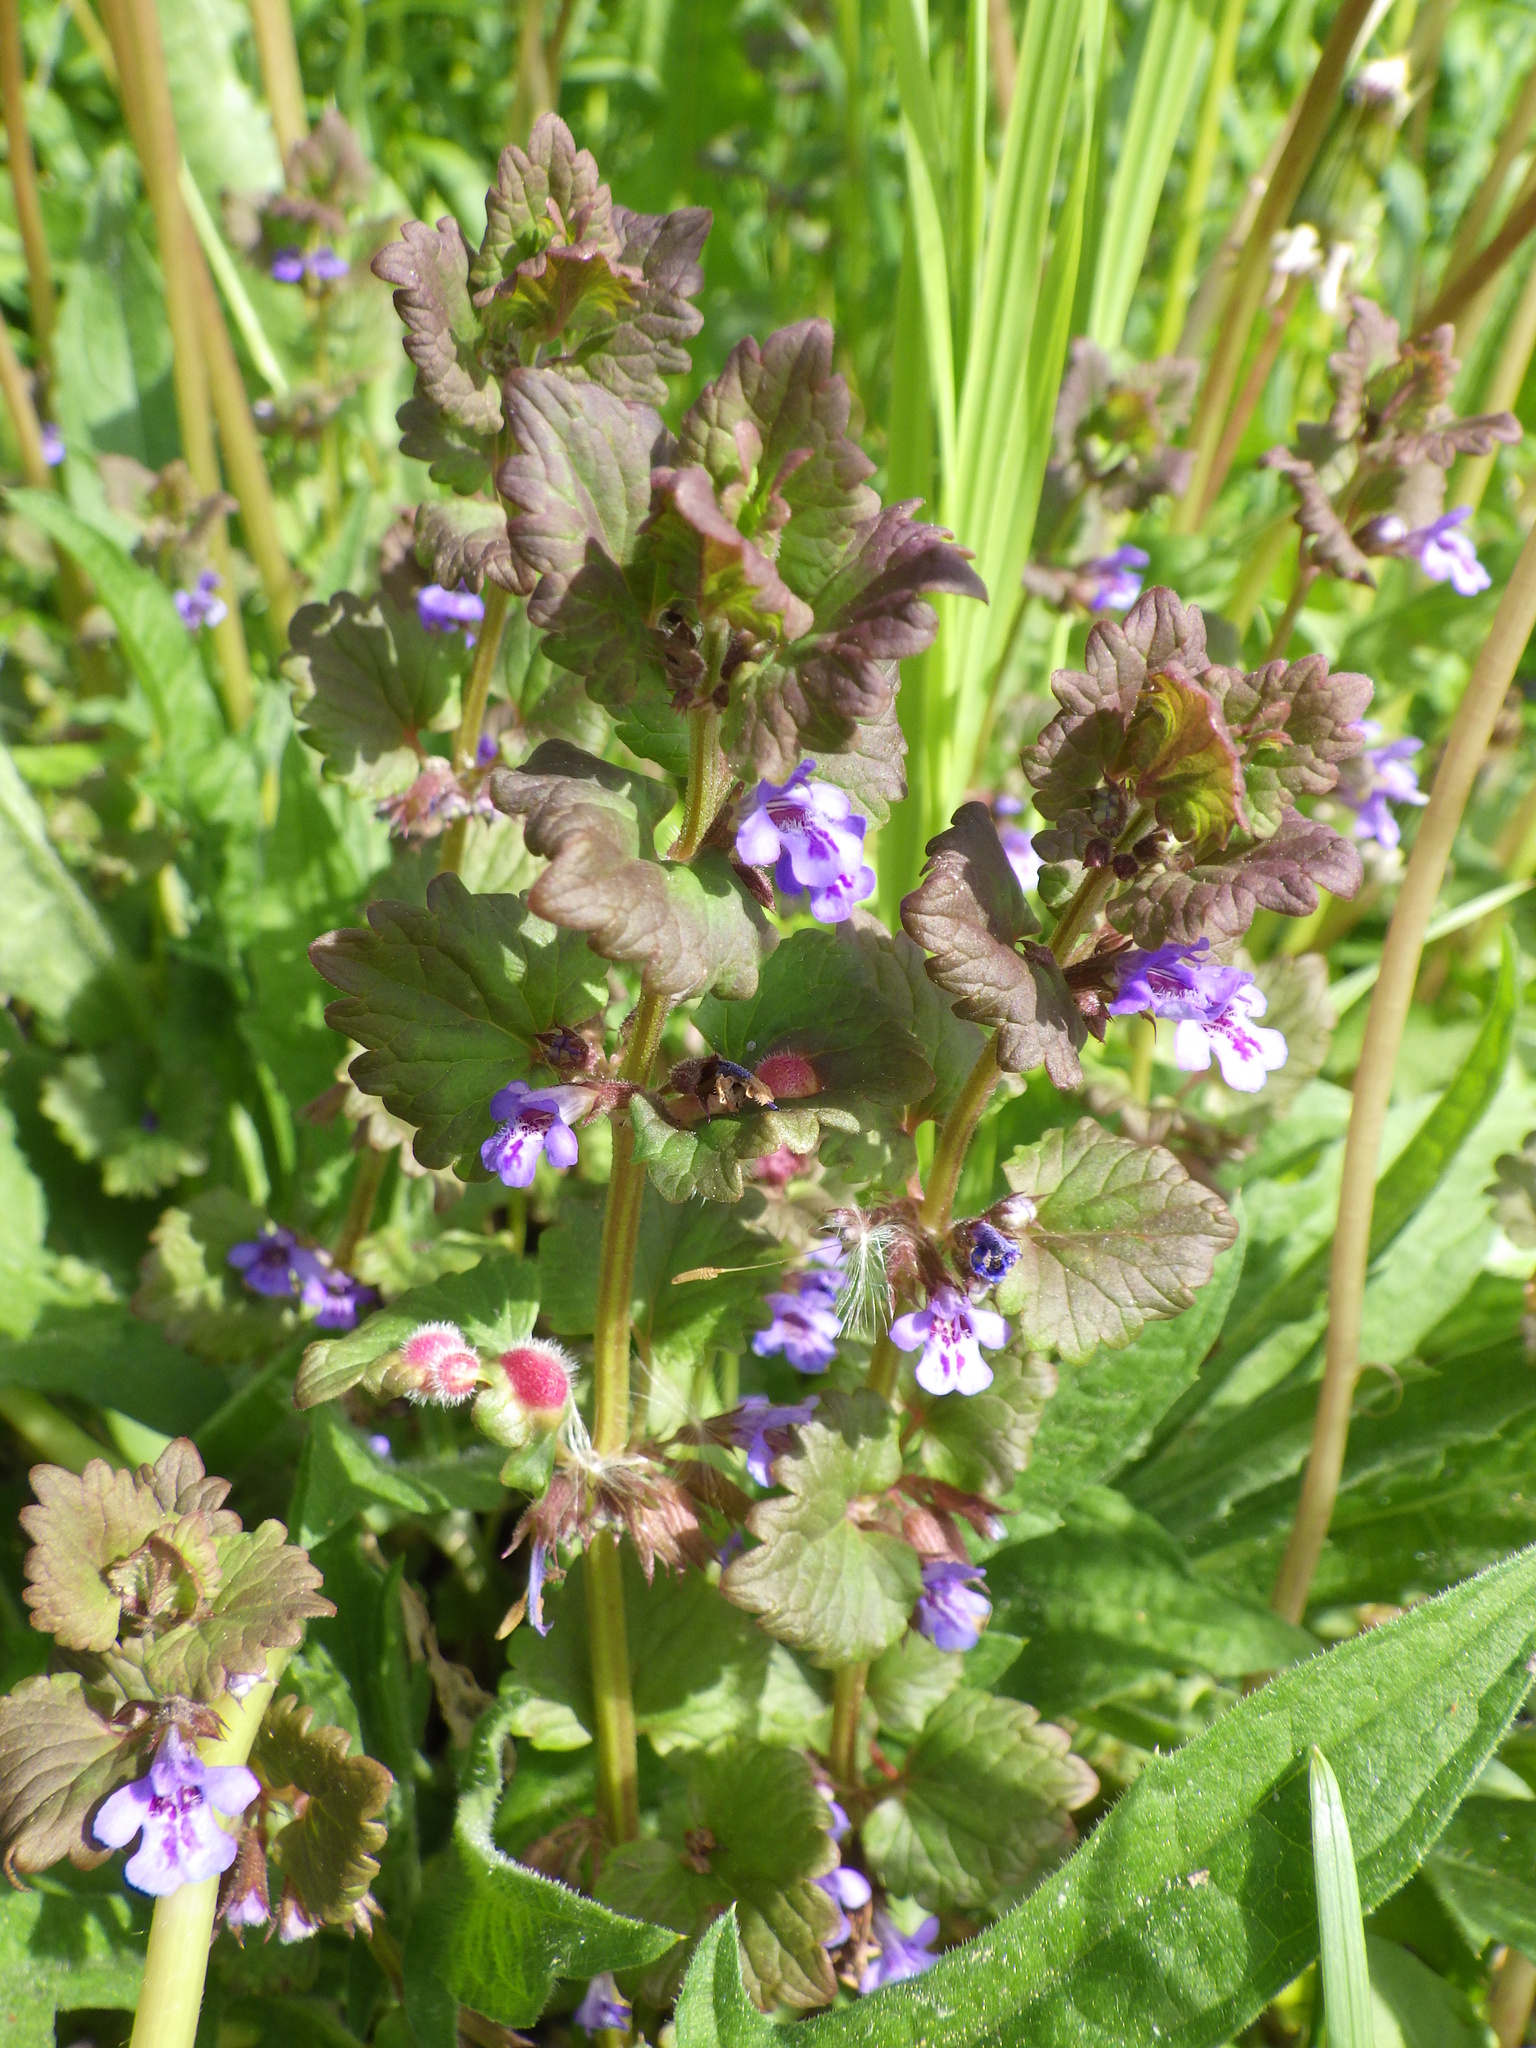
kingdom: Plantae
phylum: Tracheophyta
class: Magnoliopsida
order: Lamiales
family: Lamiaceae
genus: Glechoma
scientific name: Glechoma hederacea
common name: Ground ivy
